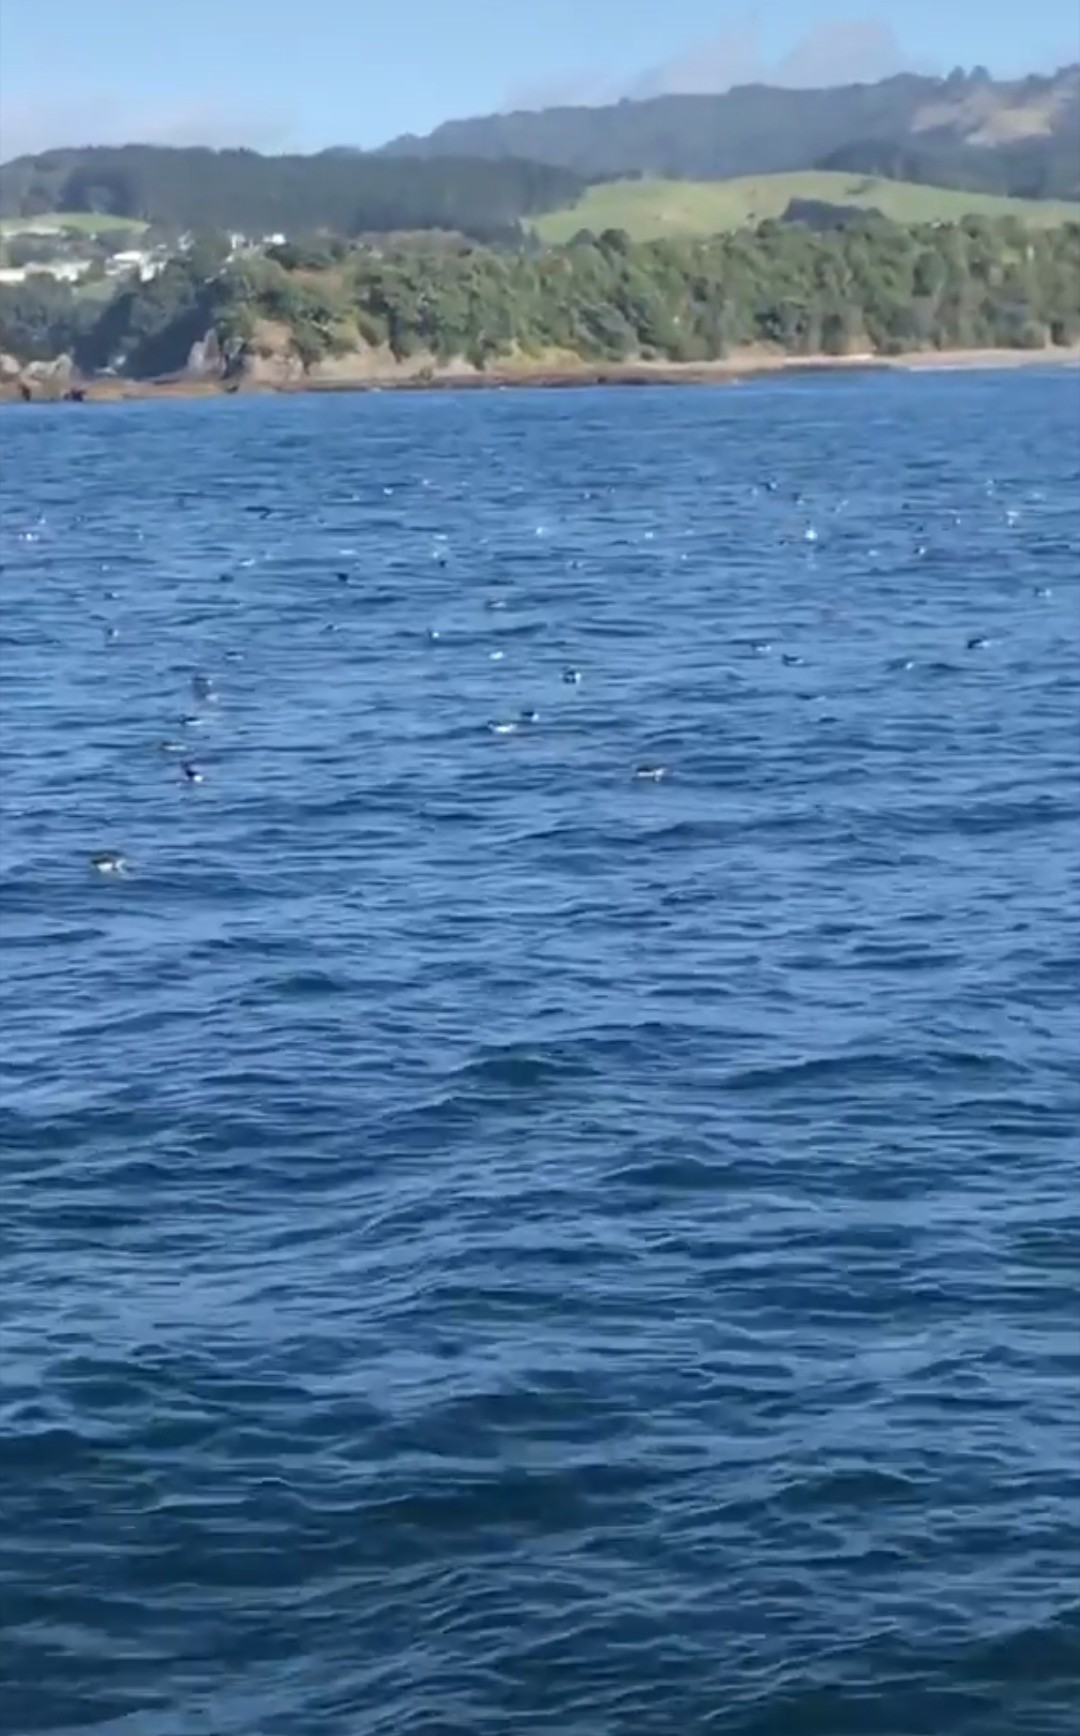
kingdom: Animalia
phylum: Chordata
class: Aves
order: Procellariiformes
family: Procellariidae
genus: Puffinus
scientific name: Puffinus gavia
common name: Fluttering shearwater
